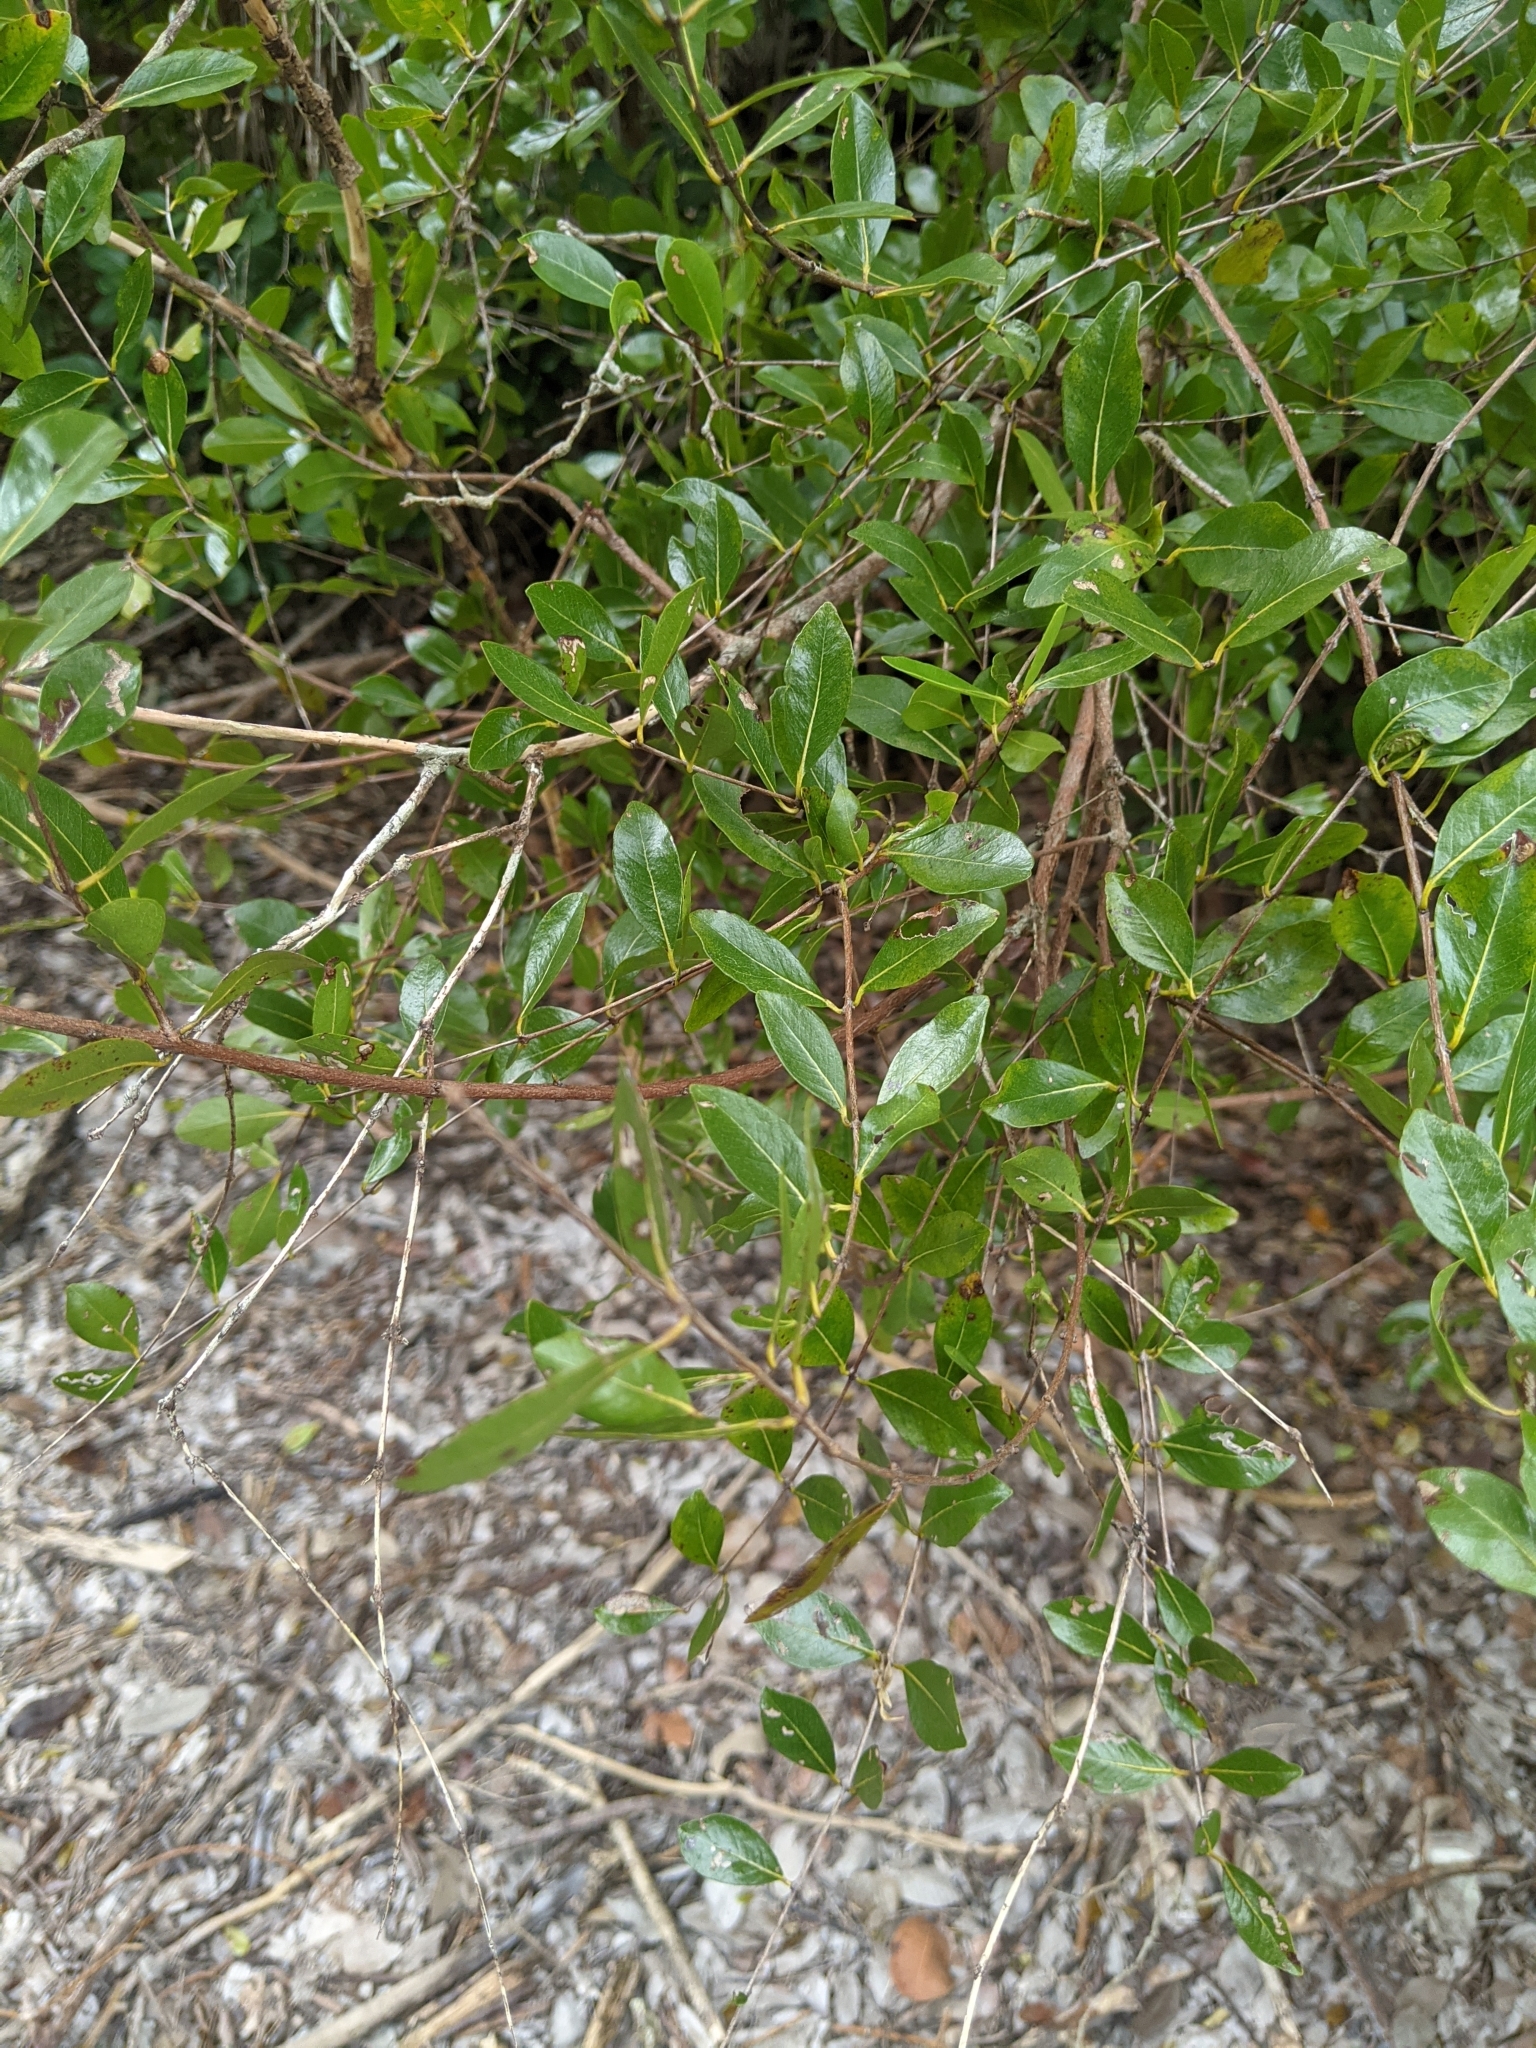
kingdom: Plantae
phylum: Tracheophyta
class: Magnoliopsida
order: Myrtales
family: Myrtaceae
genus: Mosiera
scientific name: Mosiera longipes
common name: Bahama stopper
